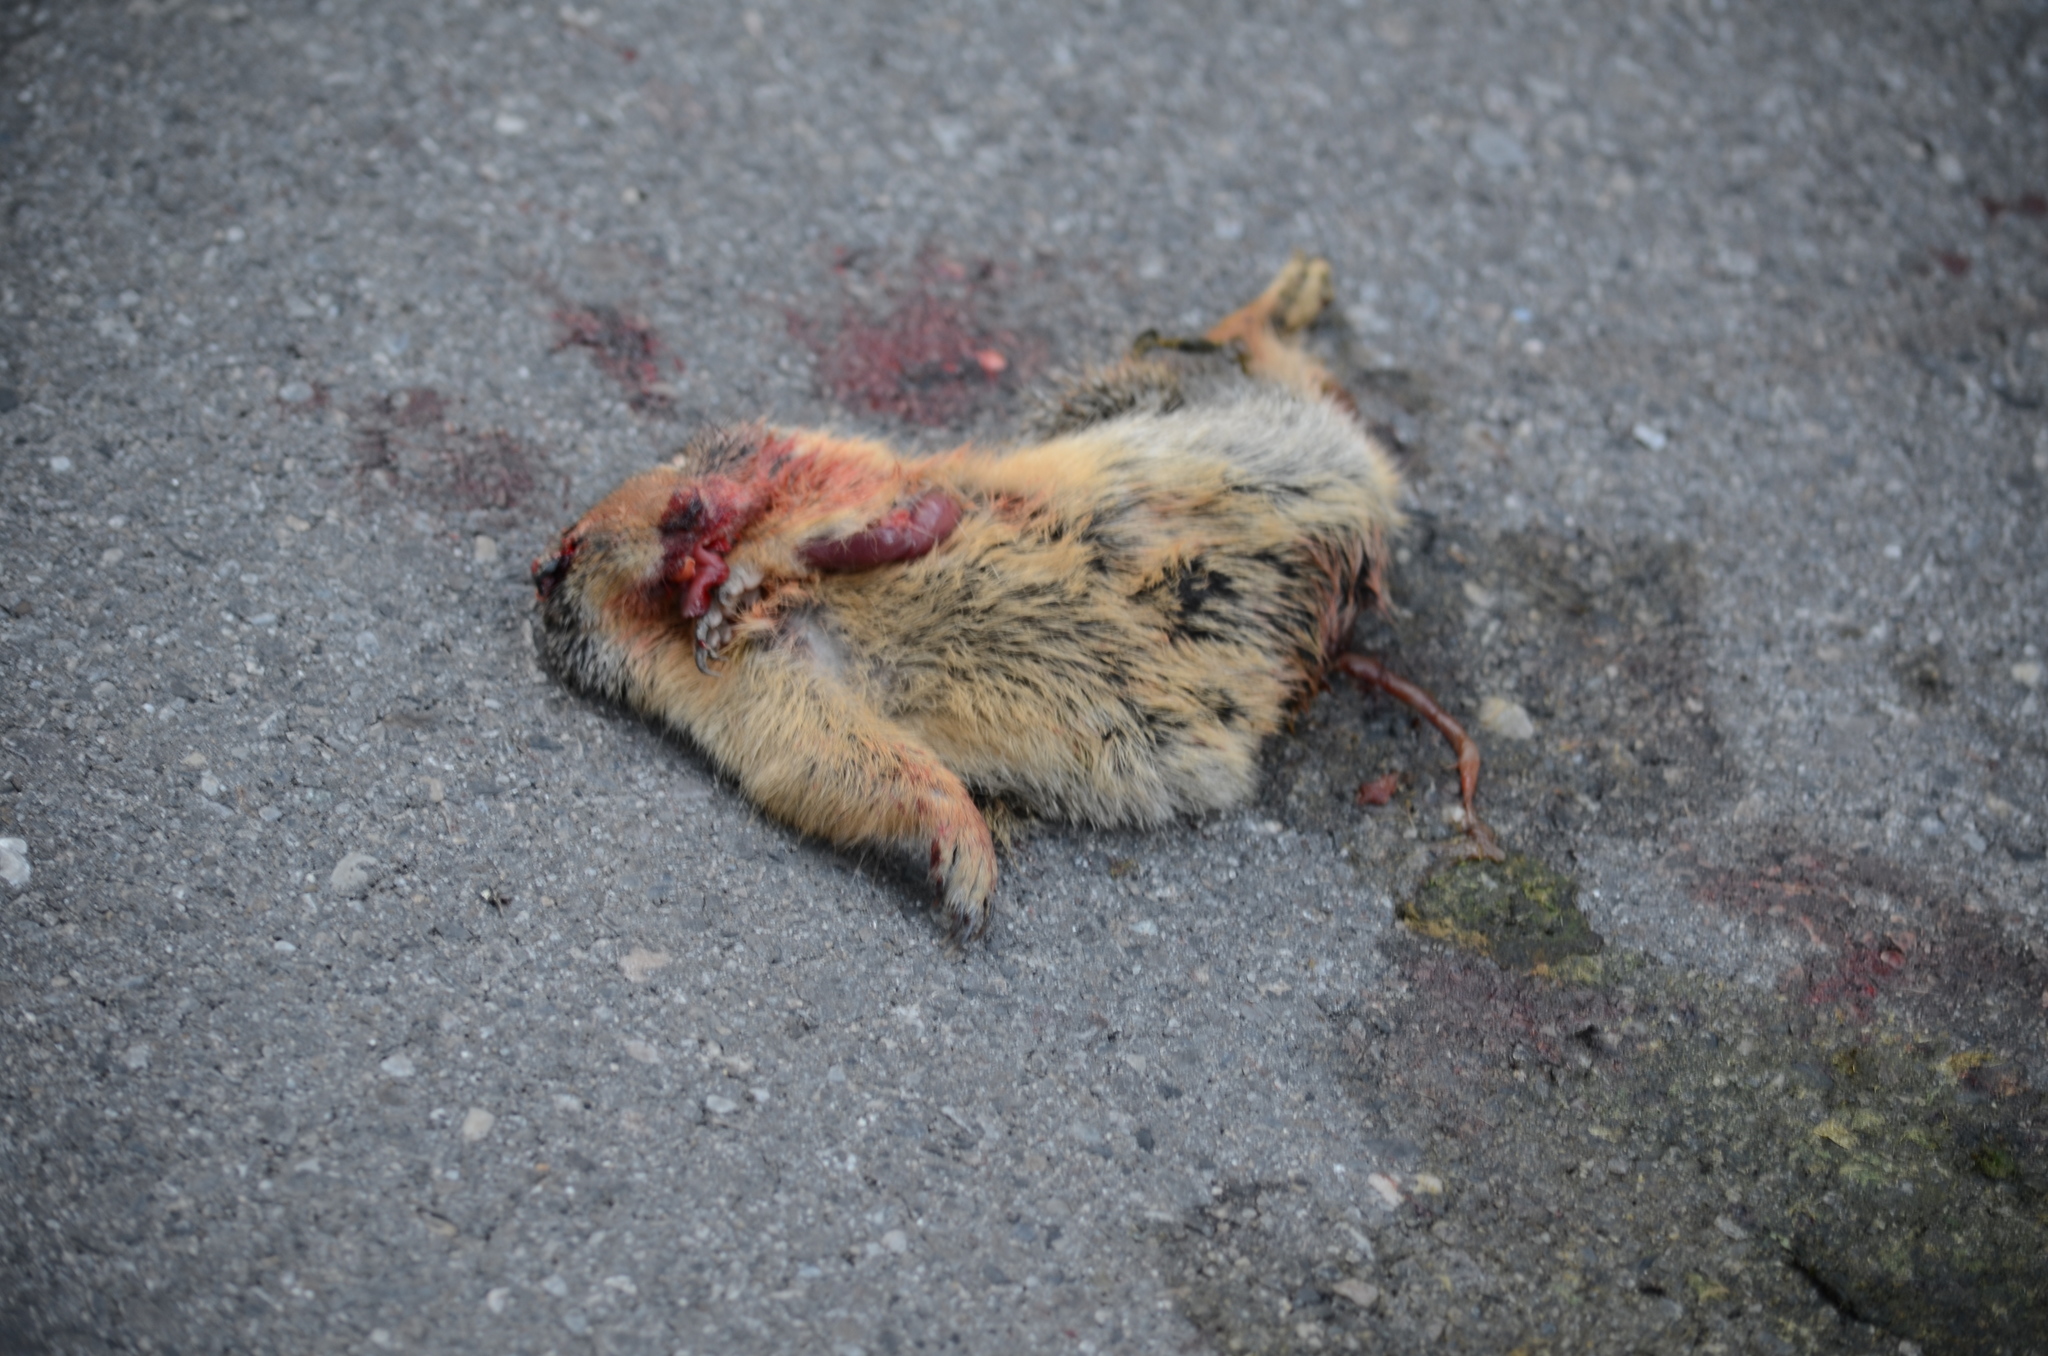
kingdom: Animalia
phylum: Chordata
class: Mammalia
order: Rodentia
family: Sciuridae
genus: Urocitellus
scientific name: Urocitellus columbianus
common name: Columbian ground squirrel
